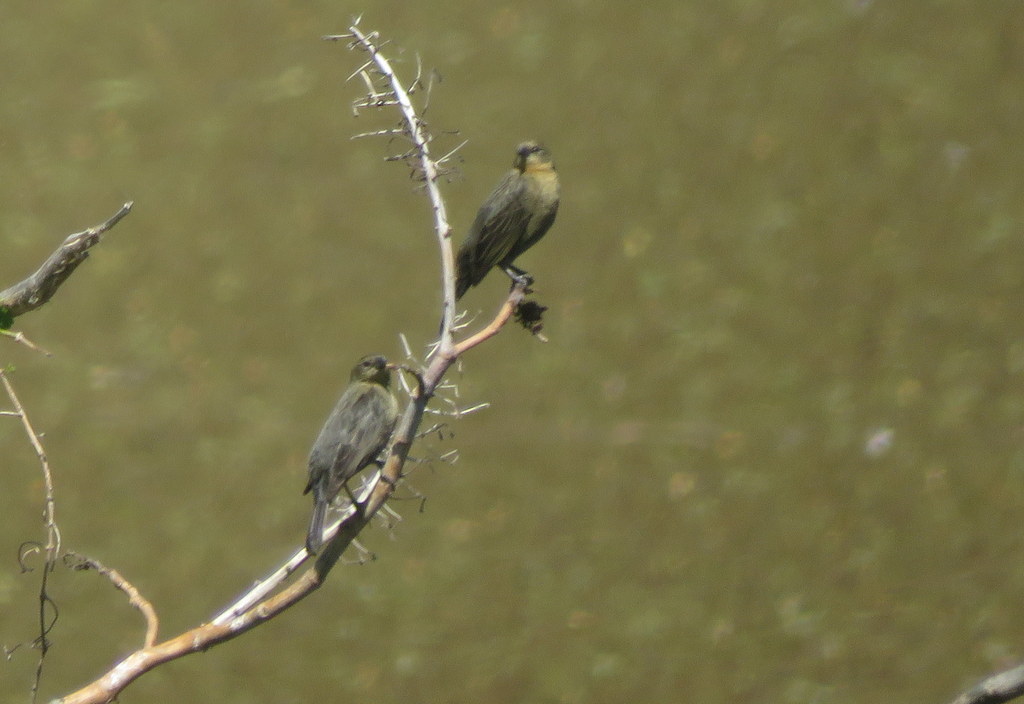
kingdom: Animalia
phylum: Chordata
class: Aves
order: Passeriformes
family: Icteridae
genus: Chrysomus
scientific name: Chrysomus ruficapillus
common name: Chestnut-capped blackbird
